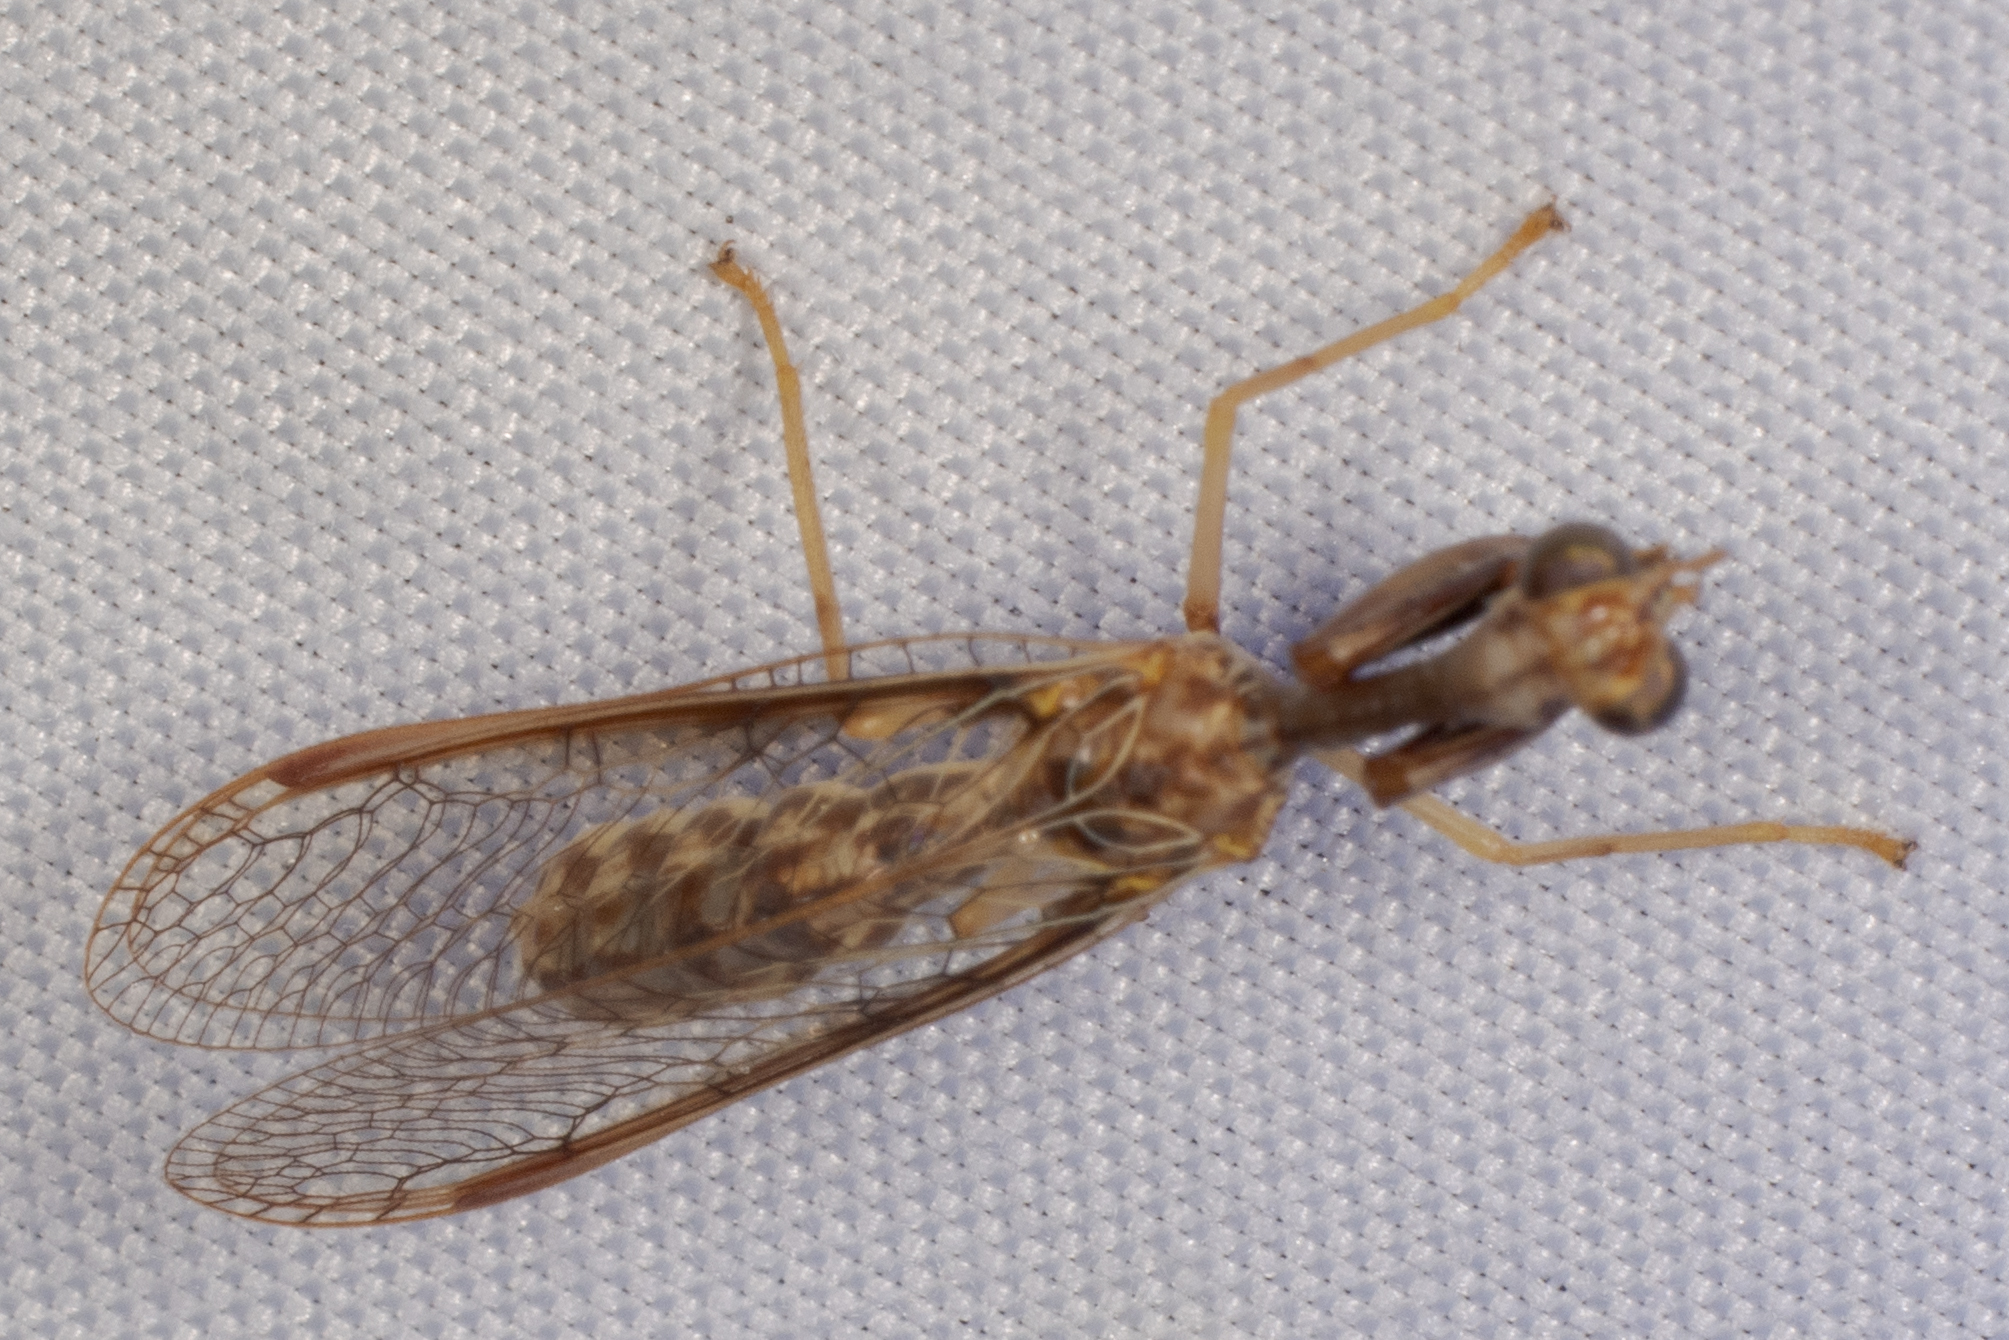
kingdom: Animalia
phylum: Arthropoda
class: Insecta
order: Neuroptera
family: Mantispidae
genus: Dicromantispa
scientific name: Dicromantispa sayi
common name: Say's mantidfly
